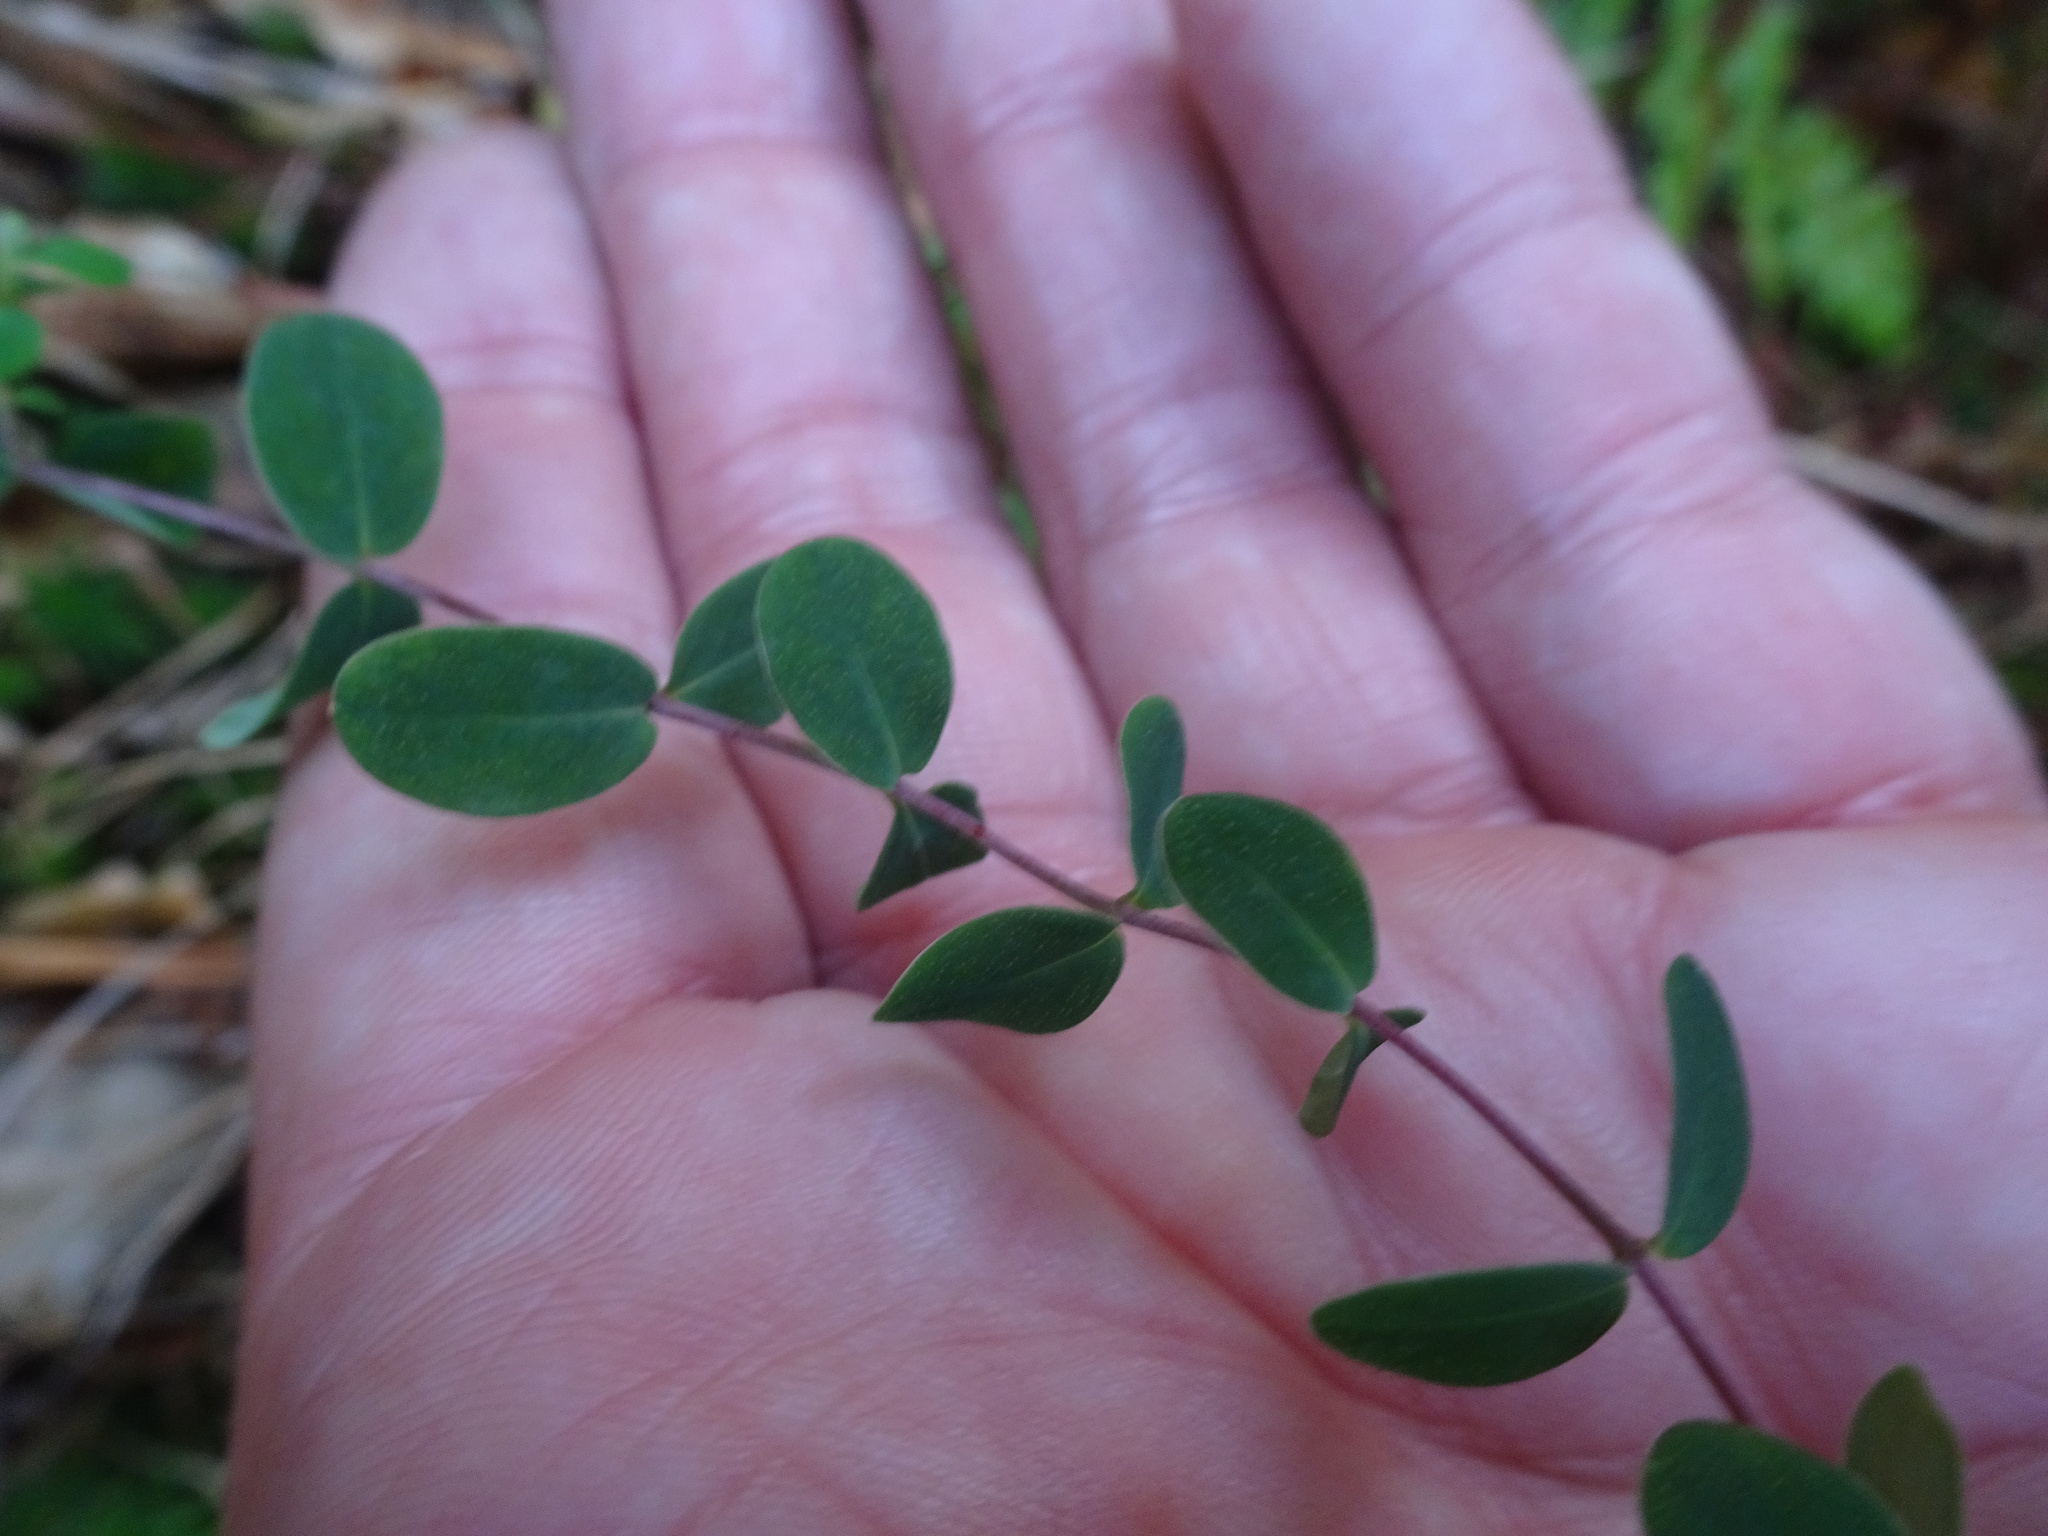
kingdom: Plantae
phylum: Tracheophyta
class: Magnoliopsida
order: Malpighiales
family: Hypericaceae
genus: Hypericum
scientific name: Hypericum pulchrum
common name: Slender st. john's-wort
